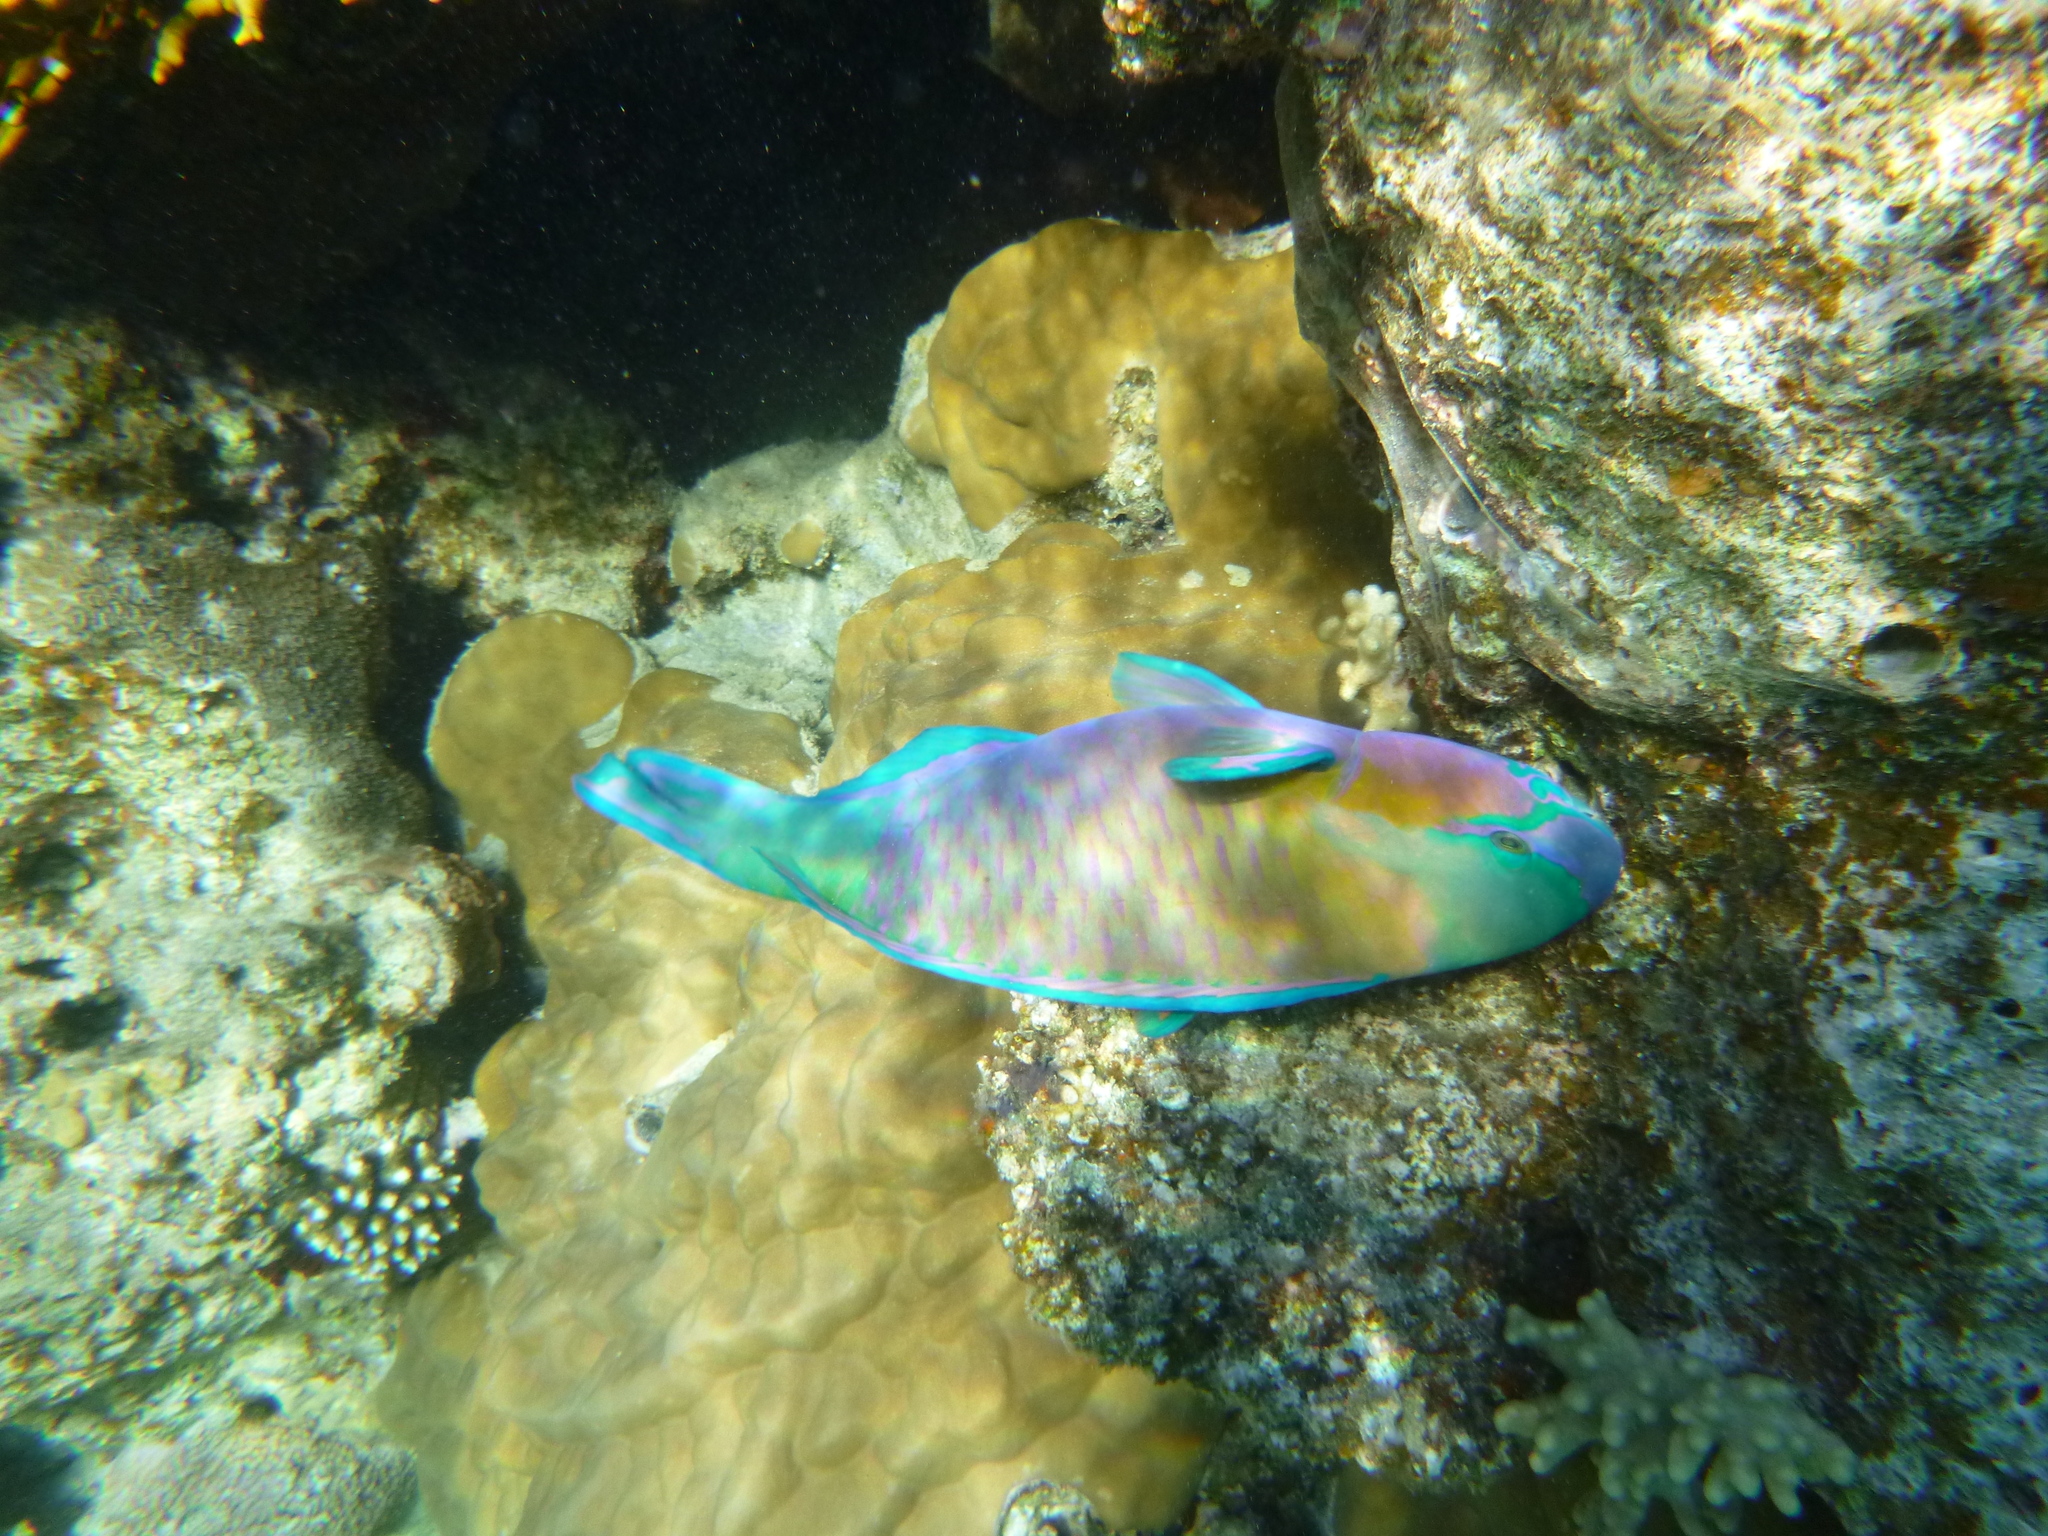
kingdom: Animalia
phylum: Chordata
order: Perciformes
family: Scaridae
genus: Chlorurus
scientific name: Chlorurus sordidus
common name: Bullethead parrotfish
